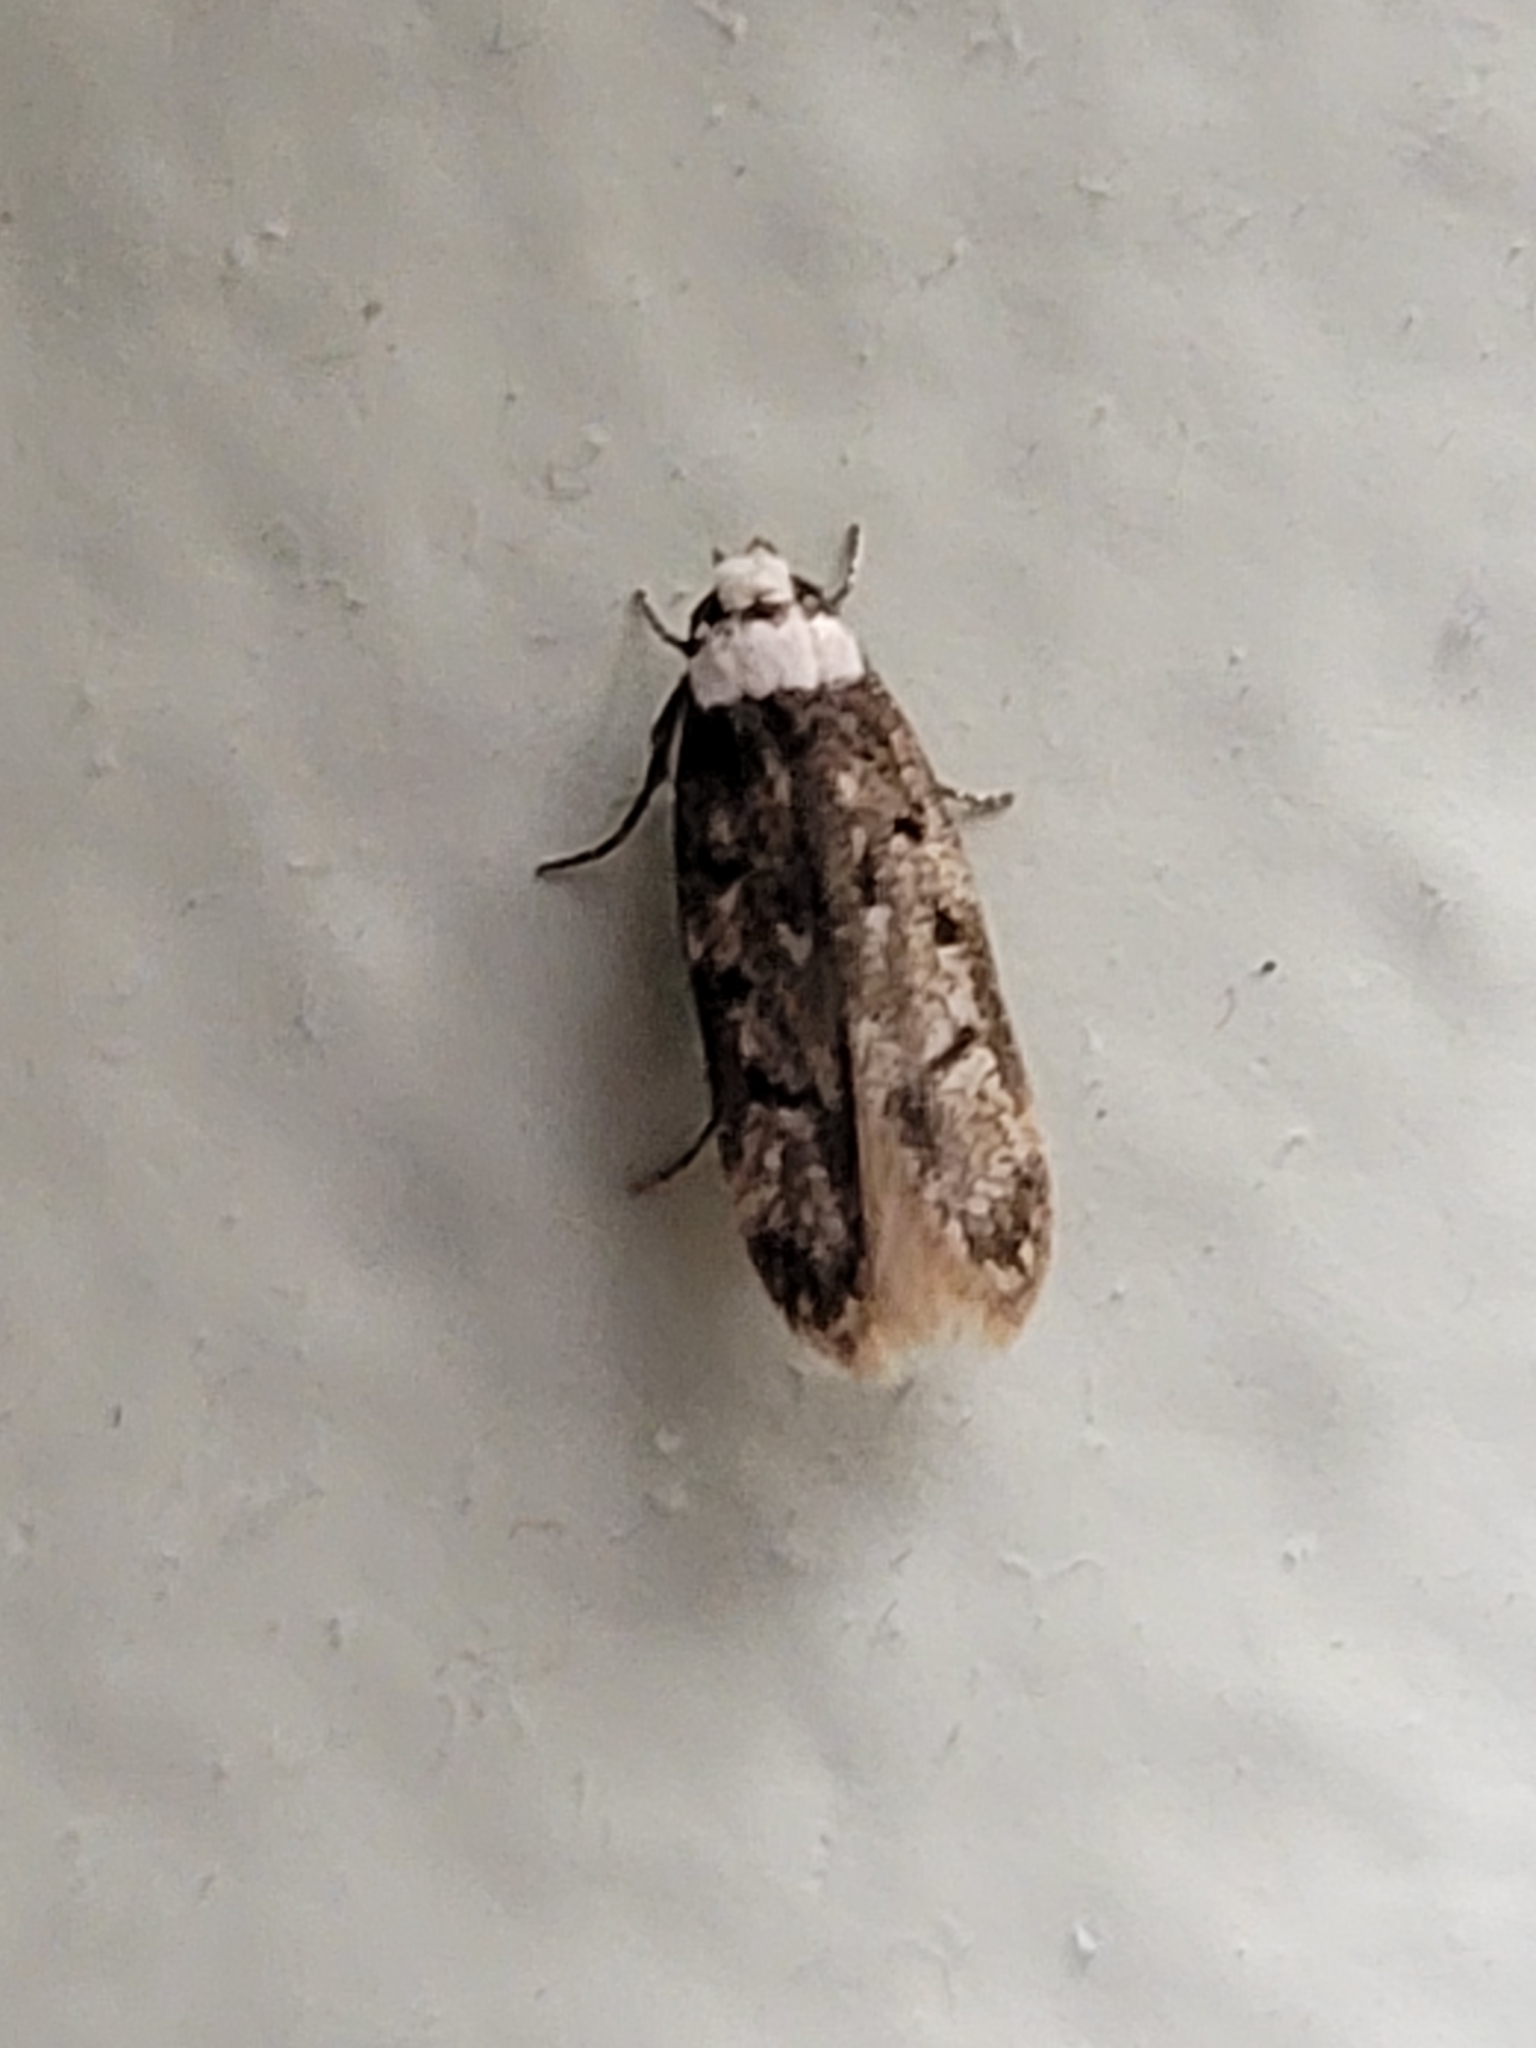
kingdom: Animalia
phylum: Arthropoda
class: Insecta
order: Lepidoptera
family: Oecophoridae
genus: Endrosis
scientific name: Endrosis sarcitrella
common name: White-shouldered house moth
